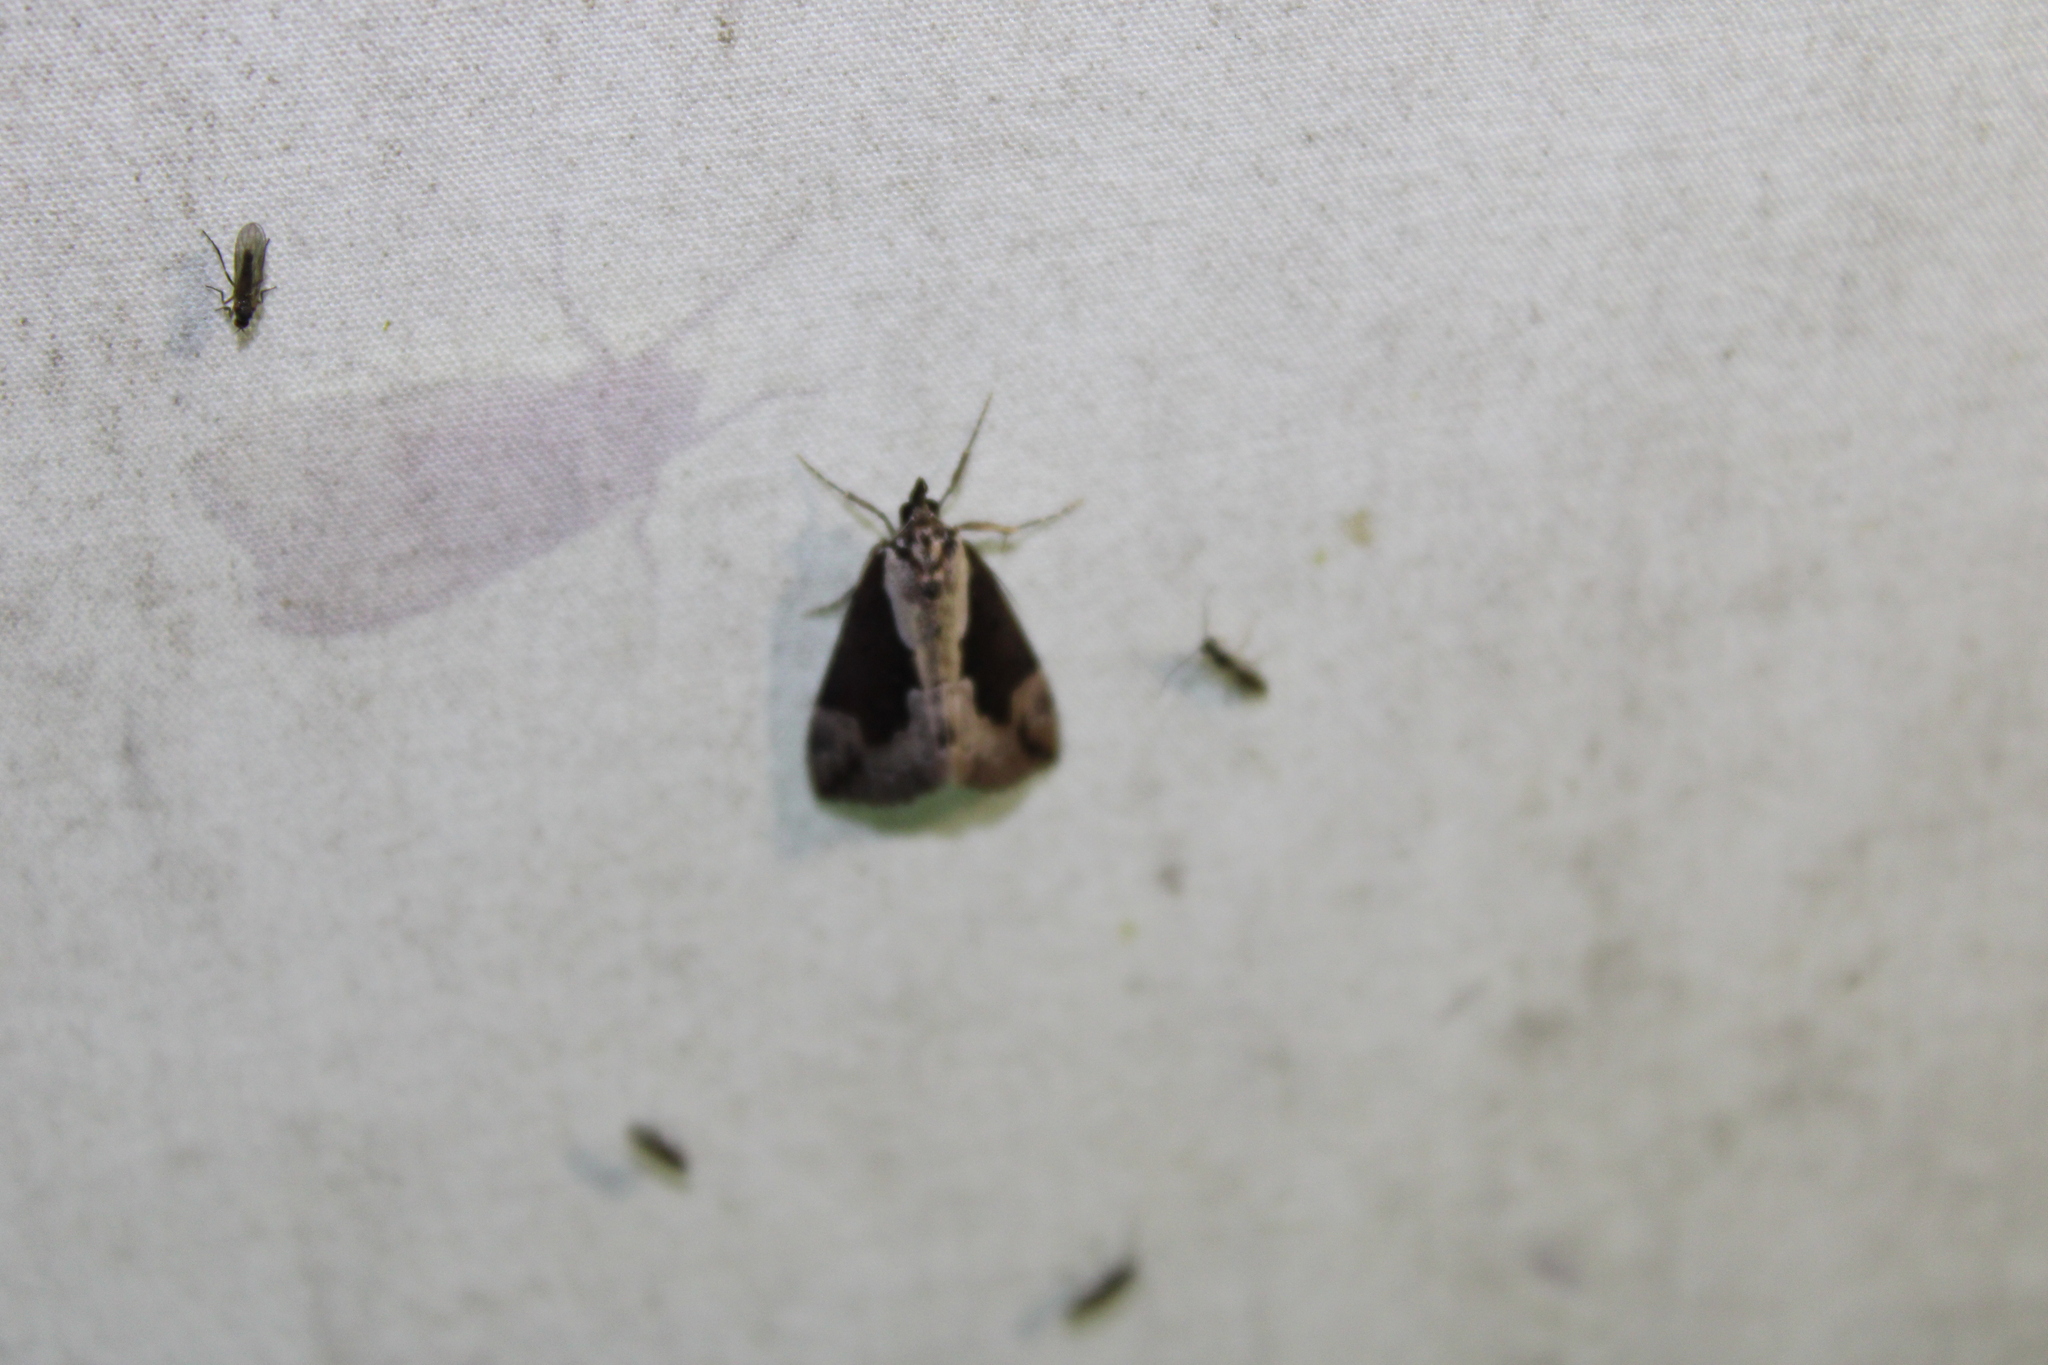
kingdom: Animalia
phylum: Arthropoda
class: Insecta
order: Lepidoptera
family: Erebidae
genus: Hypena
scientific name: Hypena baltimoralis
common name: Baltimore snout
